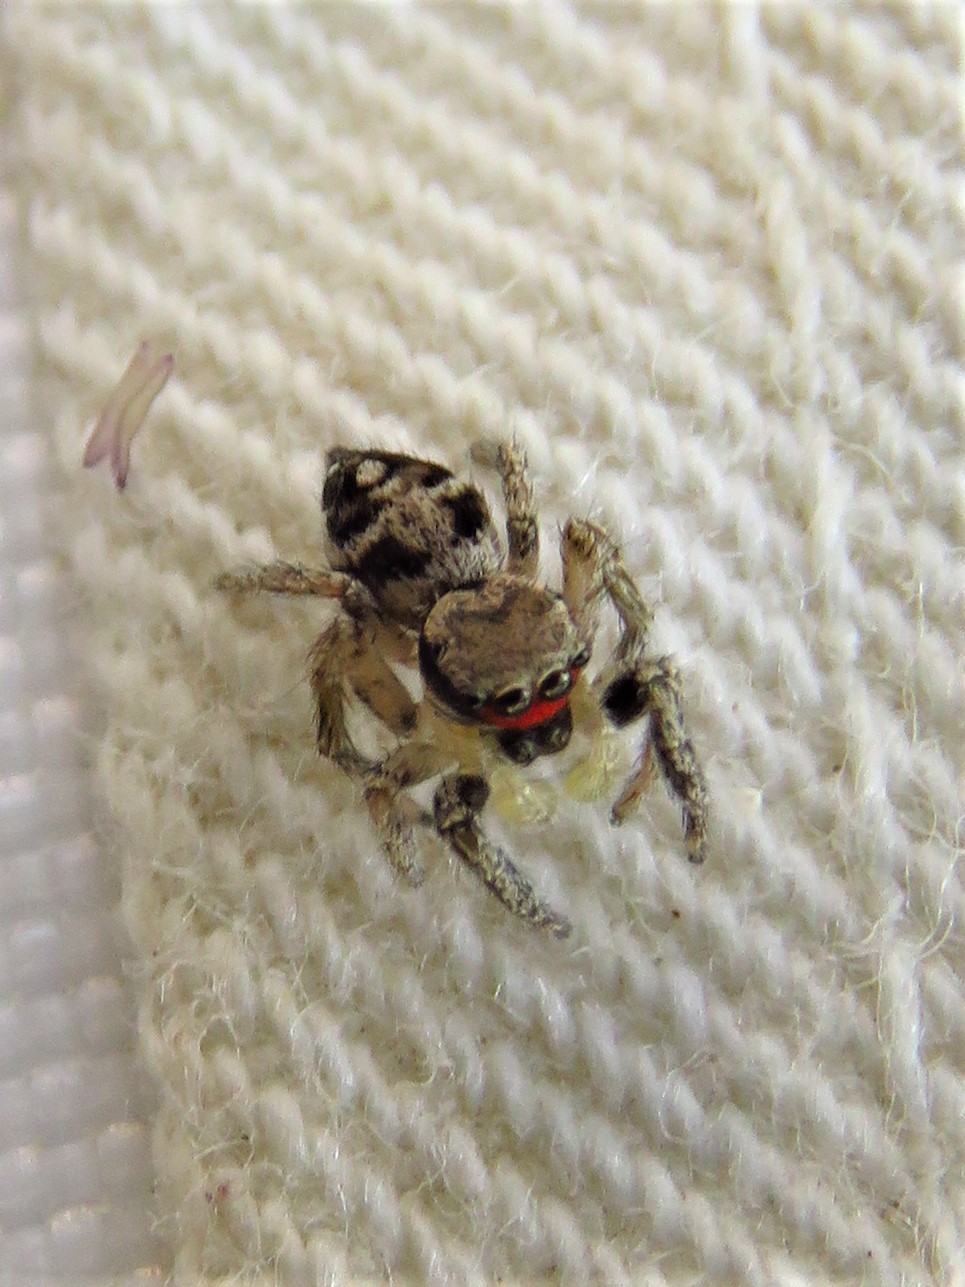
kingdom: Animalia
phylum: Arthropoda
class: Arachnida
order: Araneae
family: Salticidae
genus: Habronattus
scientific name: Habronattus coecatus
